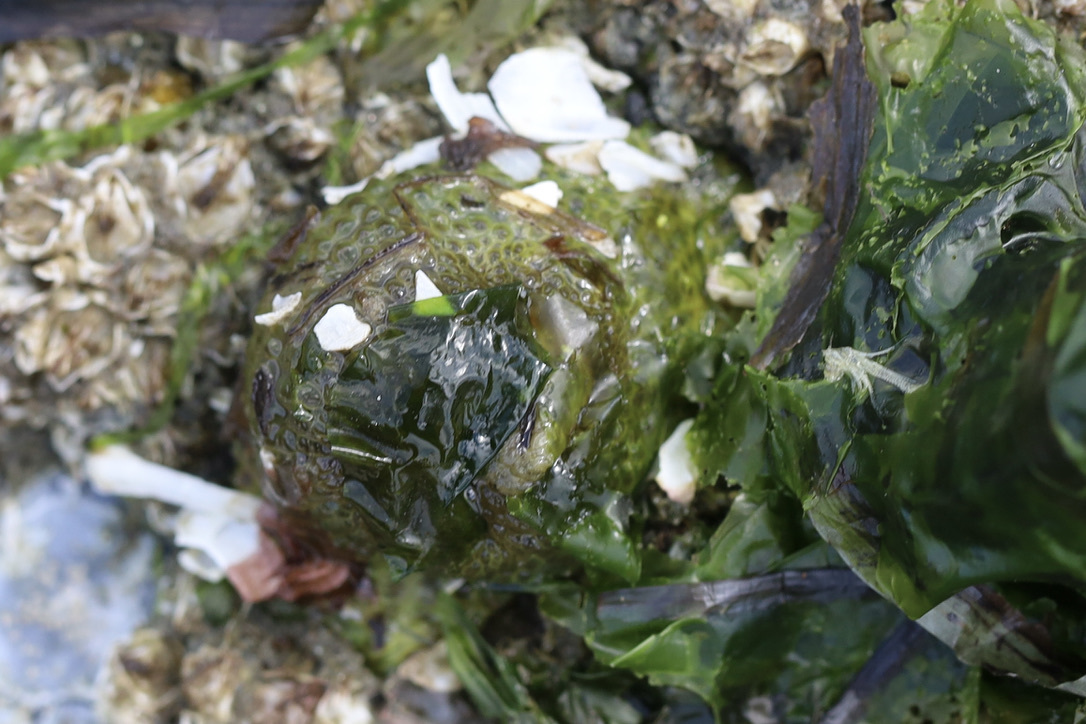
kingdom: Animalia
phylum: Cnidaria
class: Anthozoa
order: Actiniaria
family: Actiniidae
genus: Anthopleura
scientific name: Anthopleura elegantissima
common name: Clonal anemone
